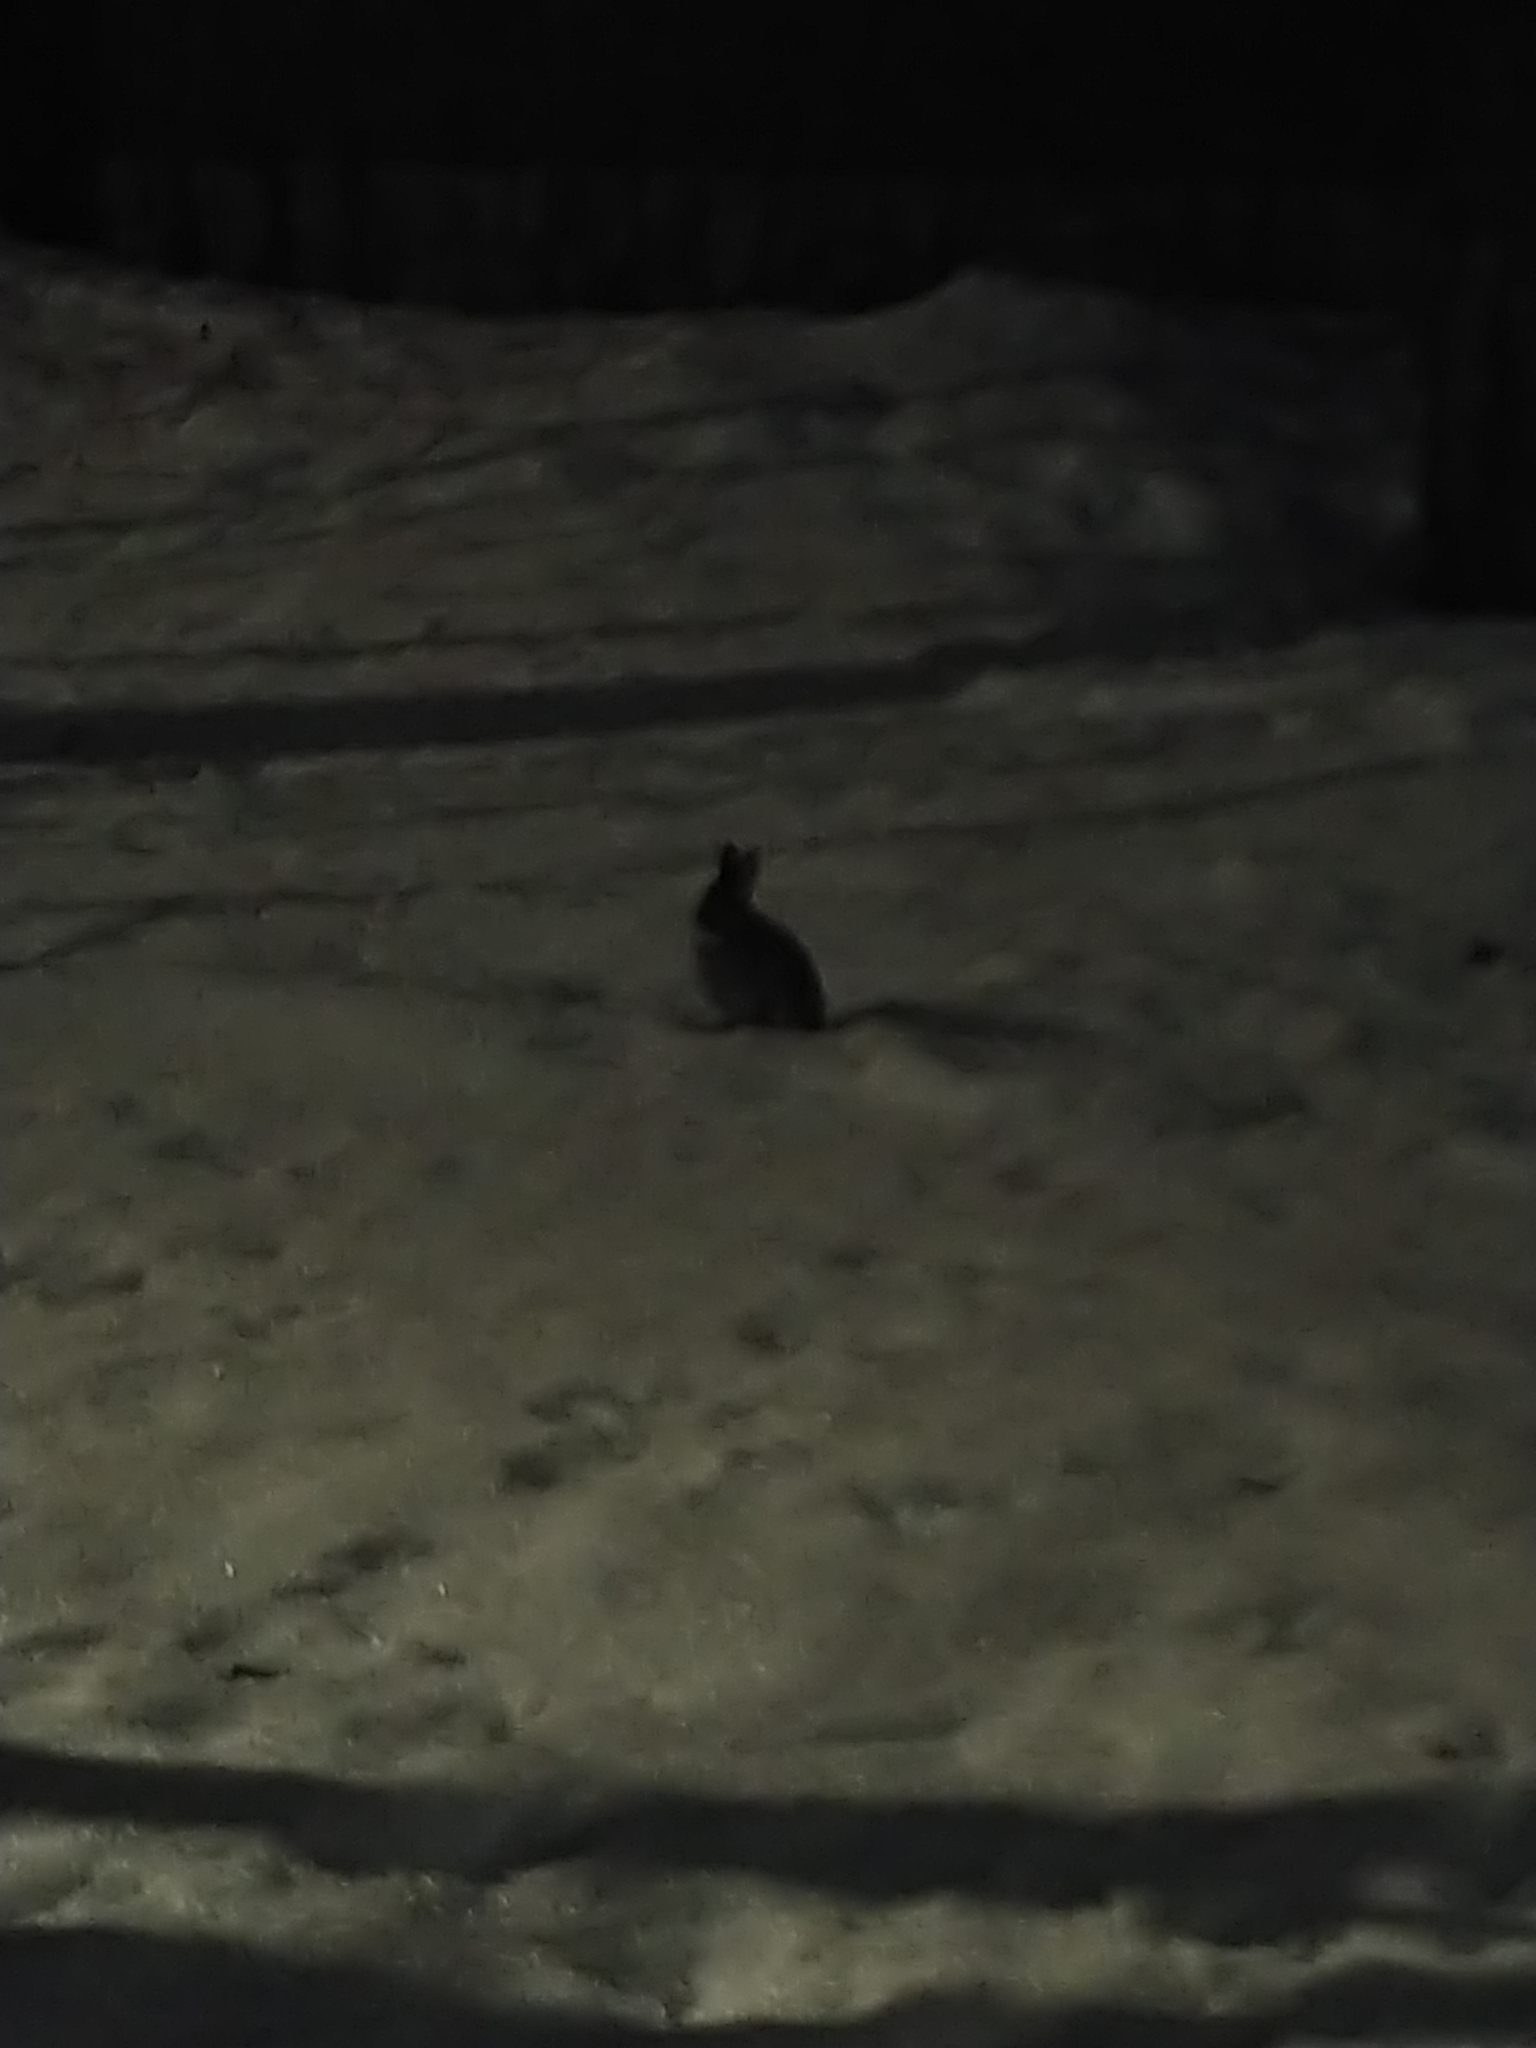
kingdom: Animalia
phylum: Chordata
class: Mammalia
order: Lagomorpha
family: Leporidae
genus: Sylvilagus
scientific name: Sylvilagus floridanus
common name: Eastern cottontail
